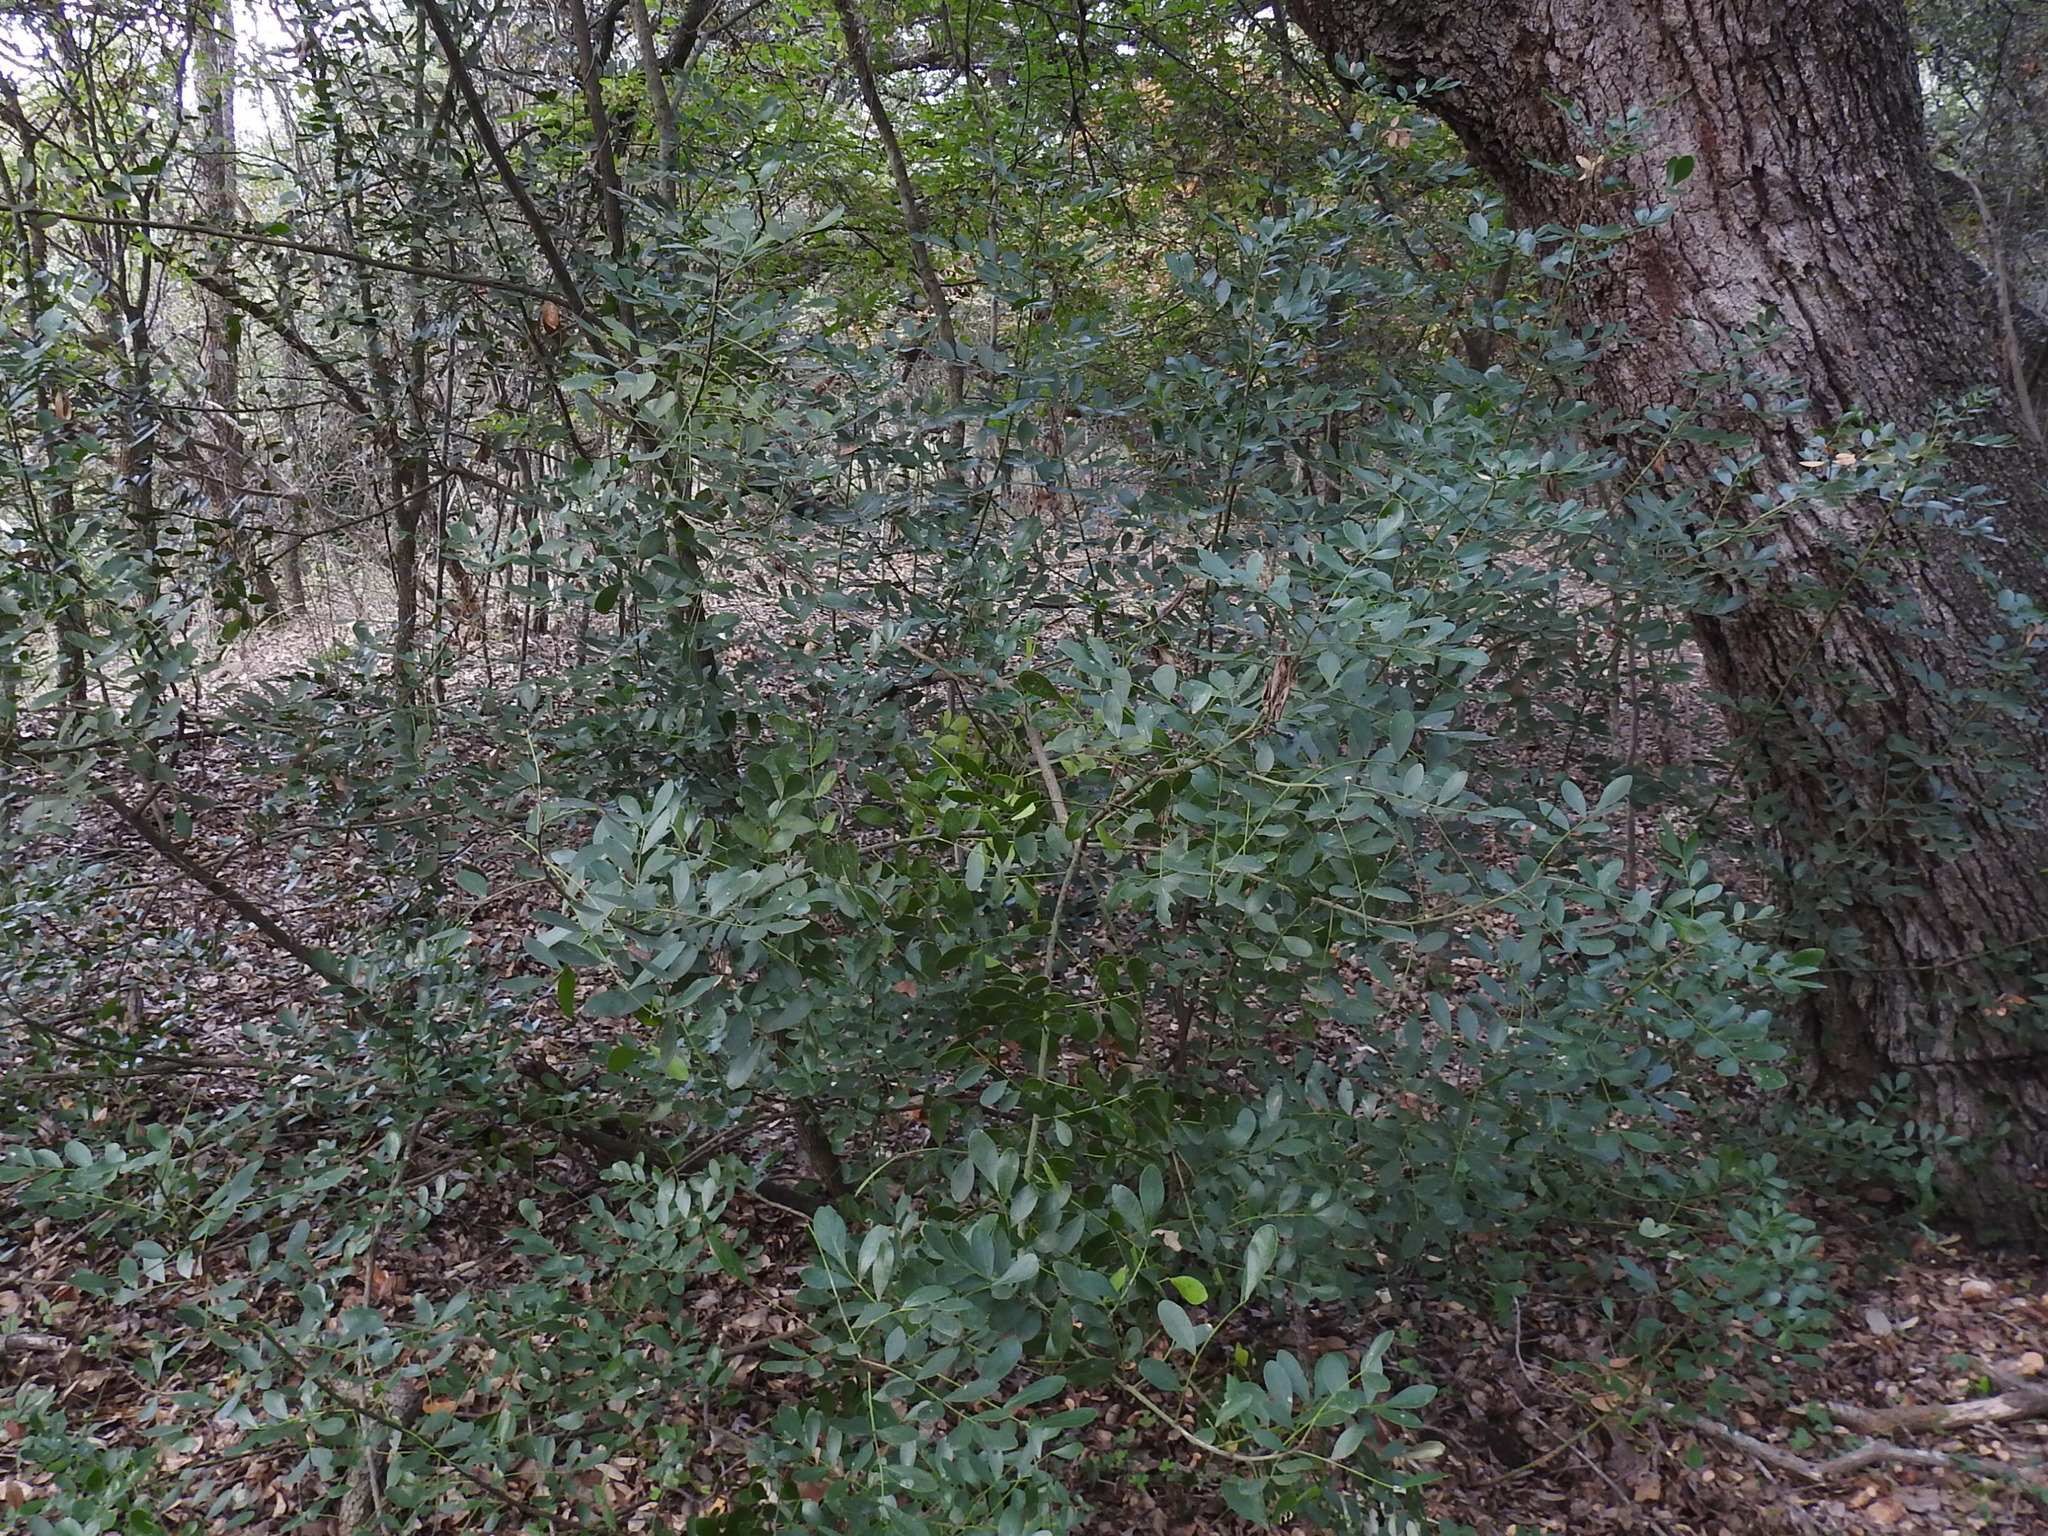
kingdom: Plantae
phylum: Tracheophyta
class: Magnoliopsida
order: Fabales
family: Fabaceae
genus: Dermatophyllum
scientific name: Dermatophyllum secundiflorum
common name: Texas-mountain-laurel
